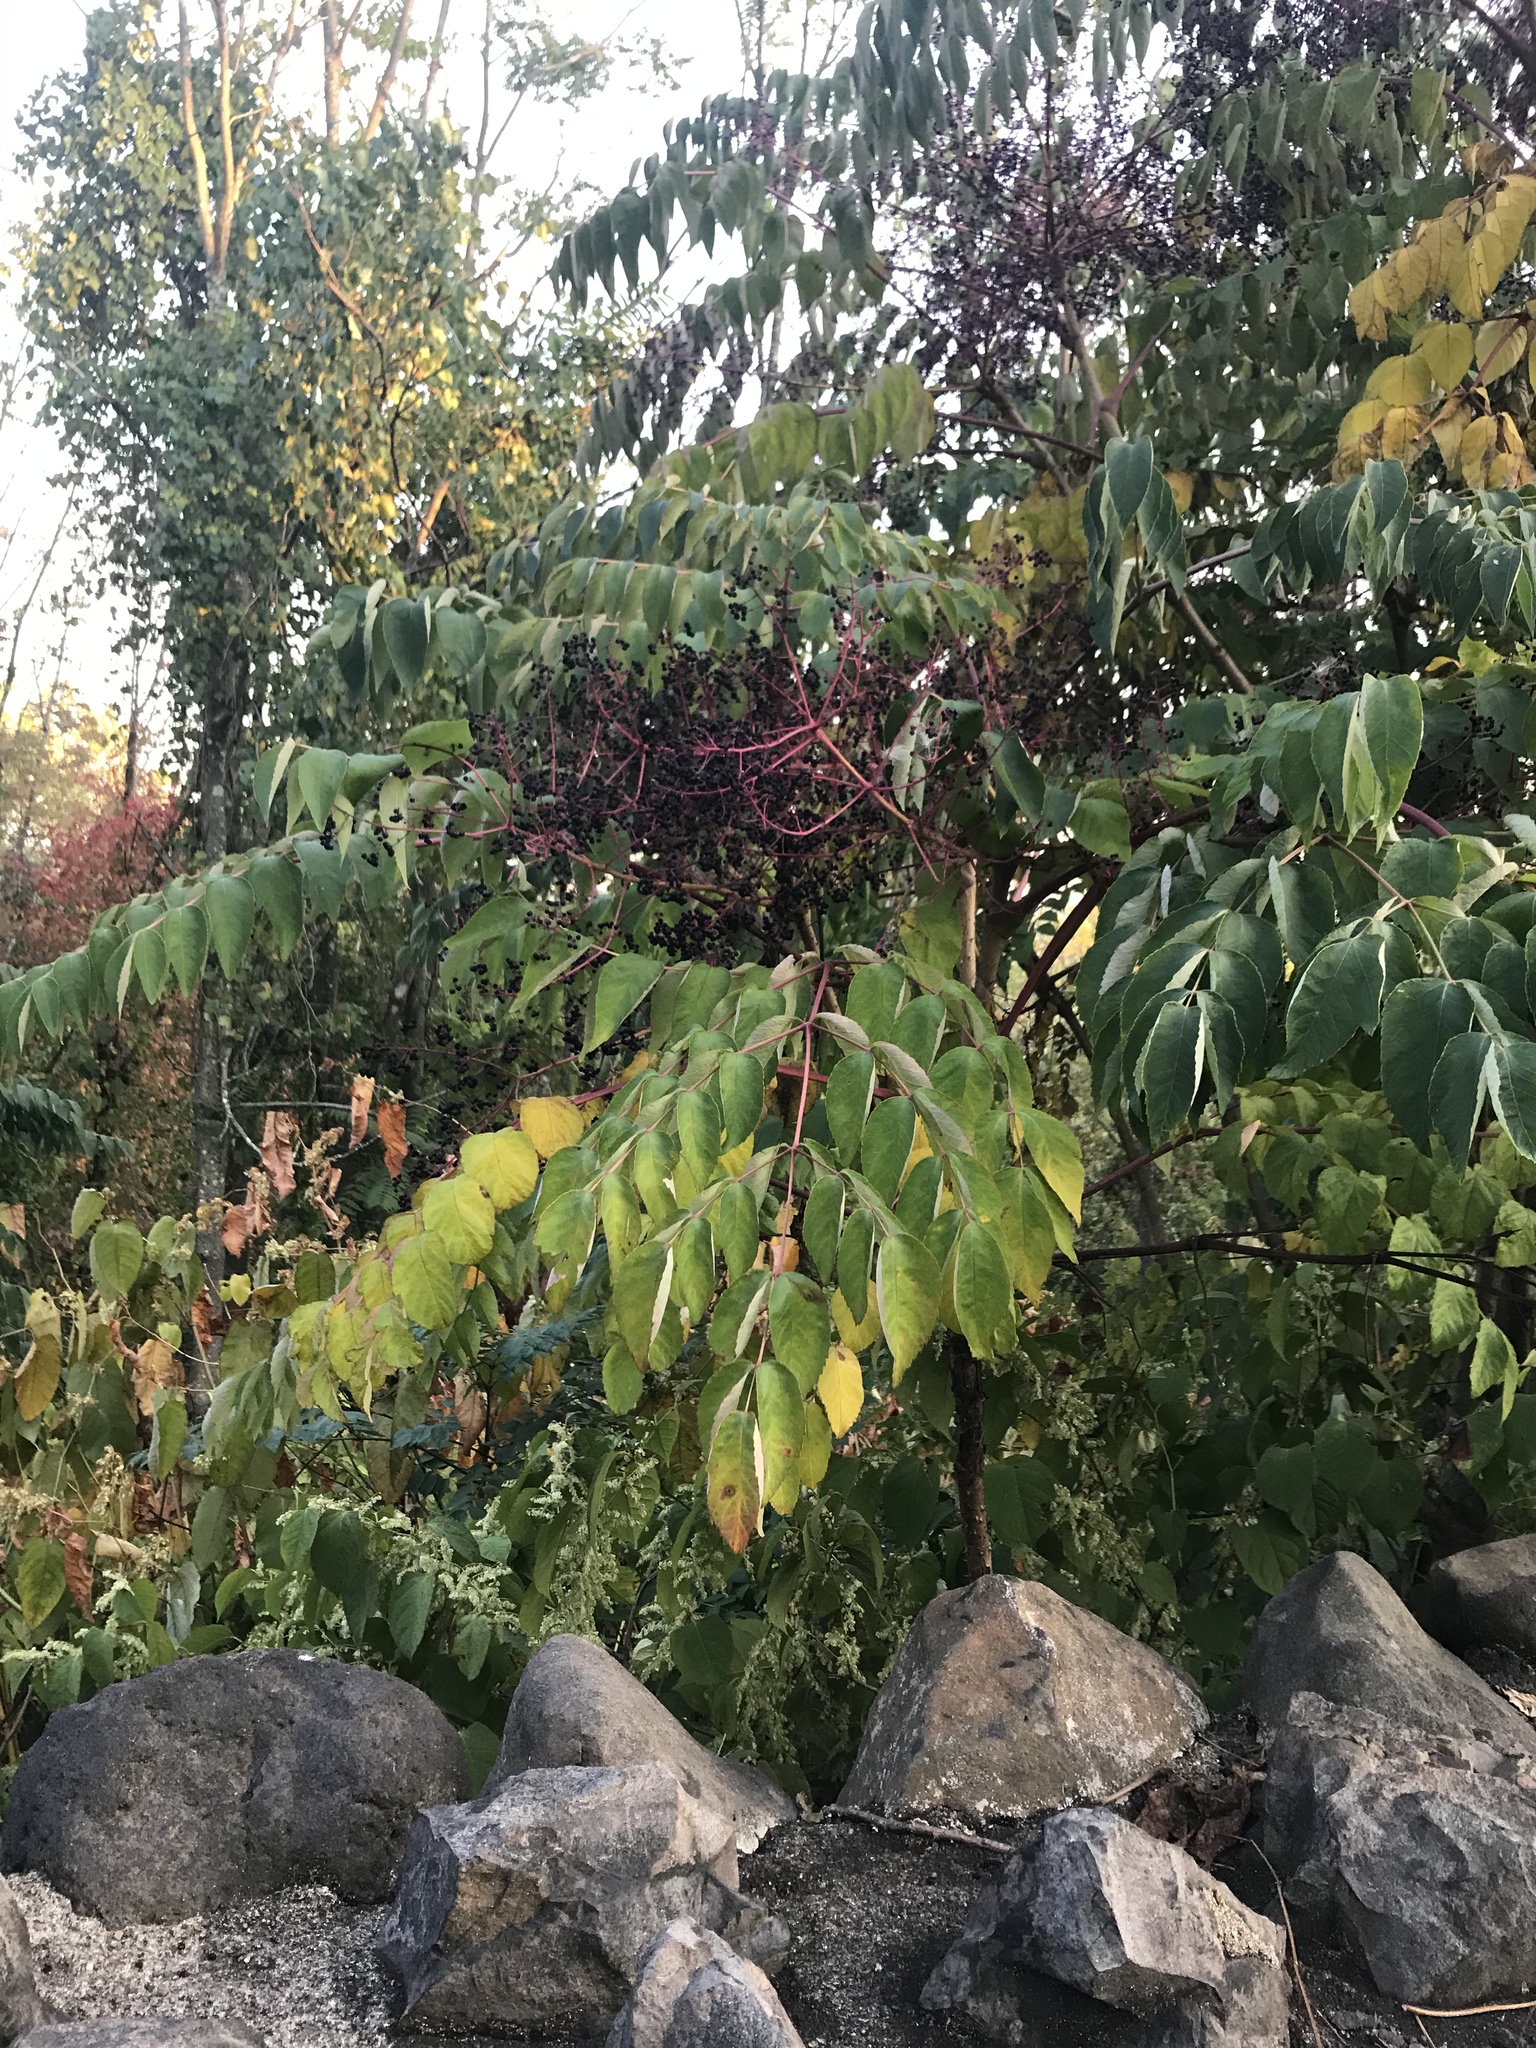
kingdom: Plantae
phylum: Tracheophyta
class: Magnoliopsida
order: Apiales
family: Araliaceae
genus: Aralia
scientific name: Aralia elata
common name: Japanese angelica-tree
